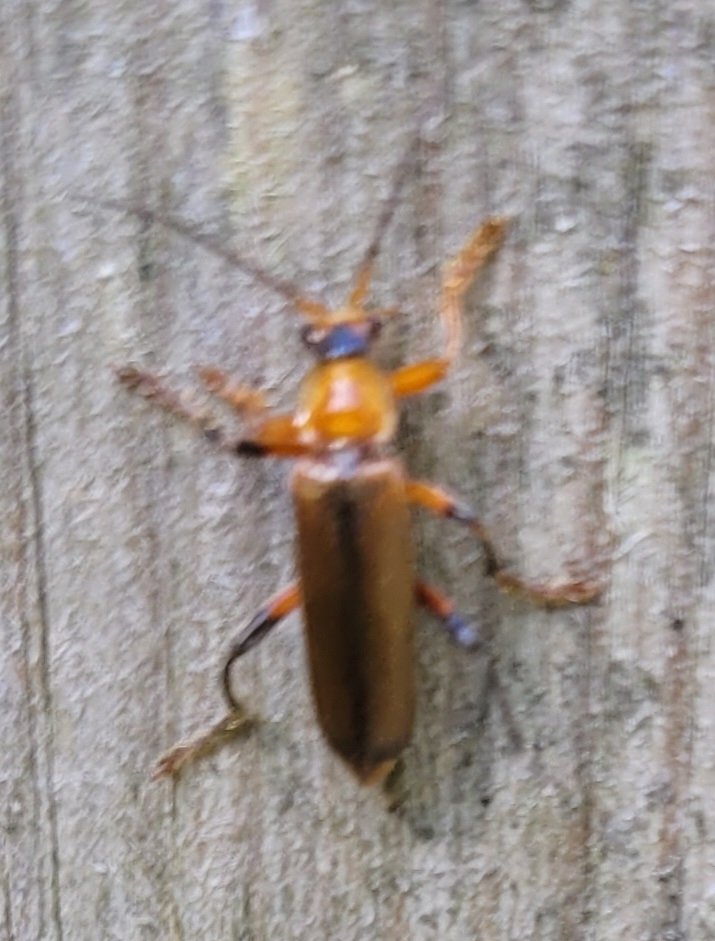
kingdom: Animalia
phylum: Arthropoda
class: Insecta
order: Coleoptera
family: Cantharidae
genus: Cantharis
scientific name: Cantharis livida
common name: Livid soldier beetle
